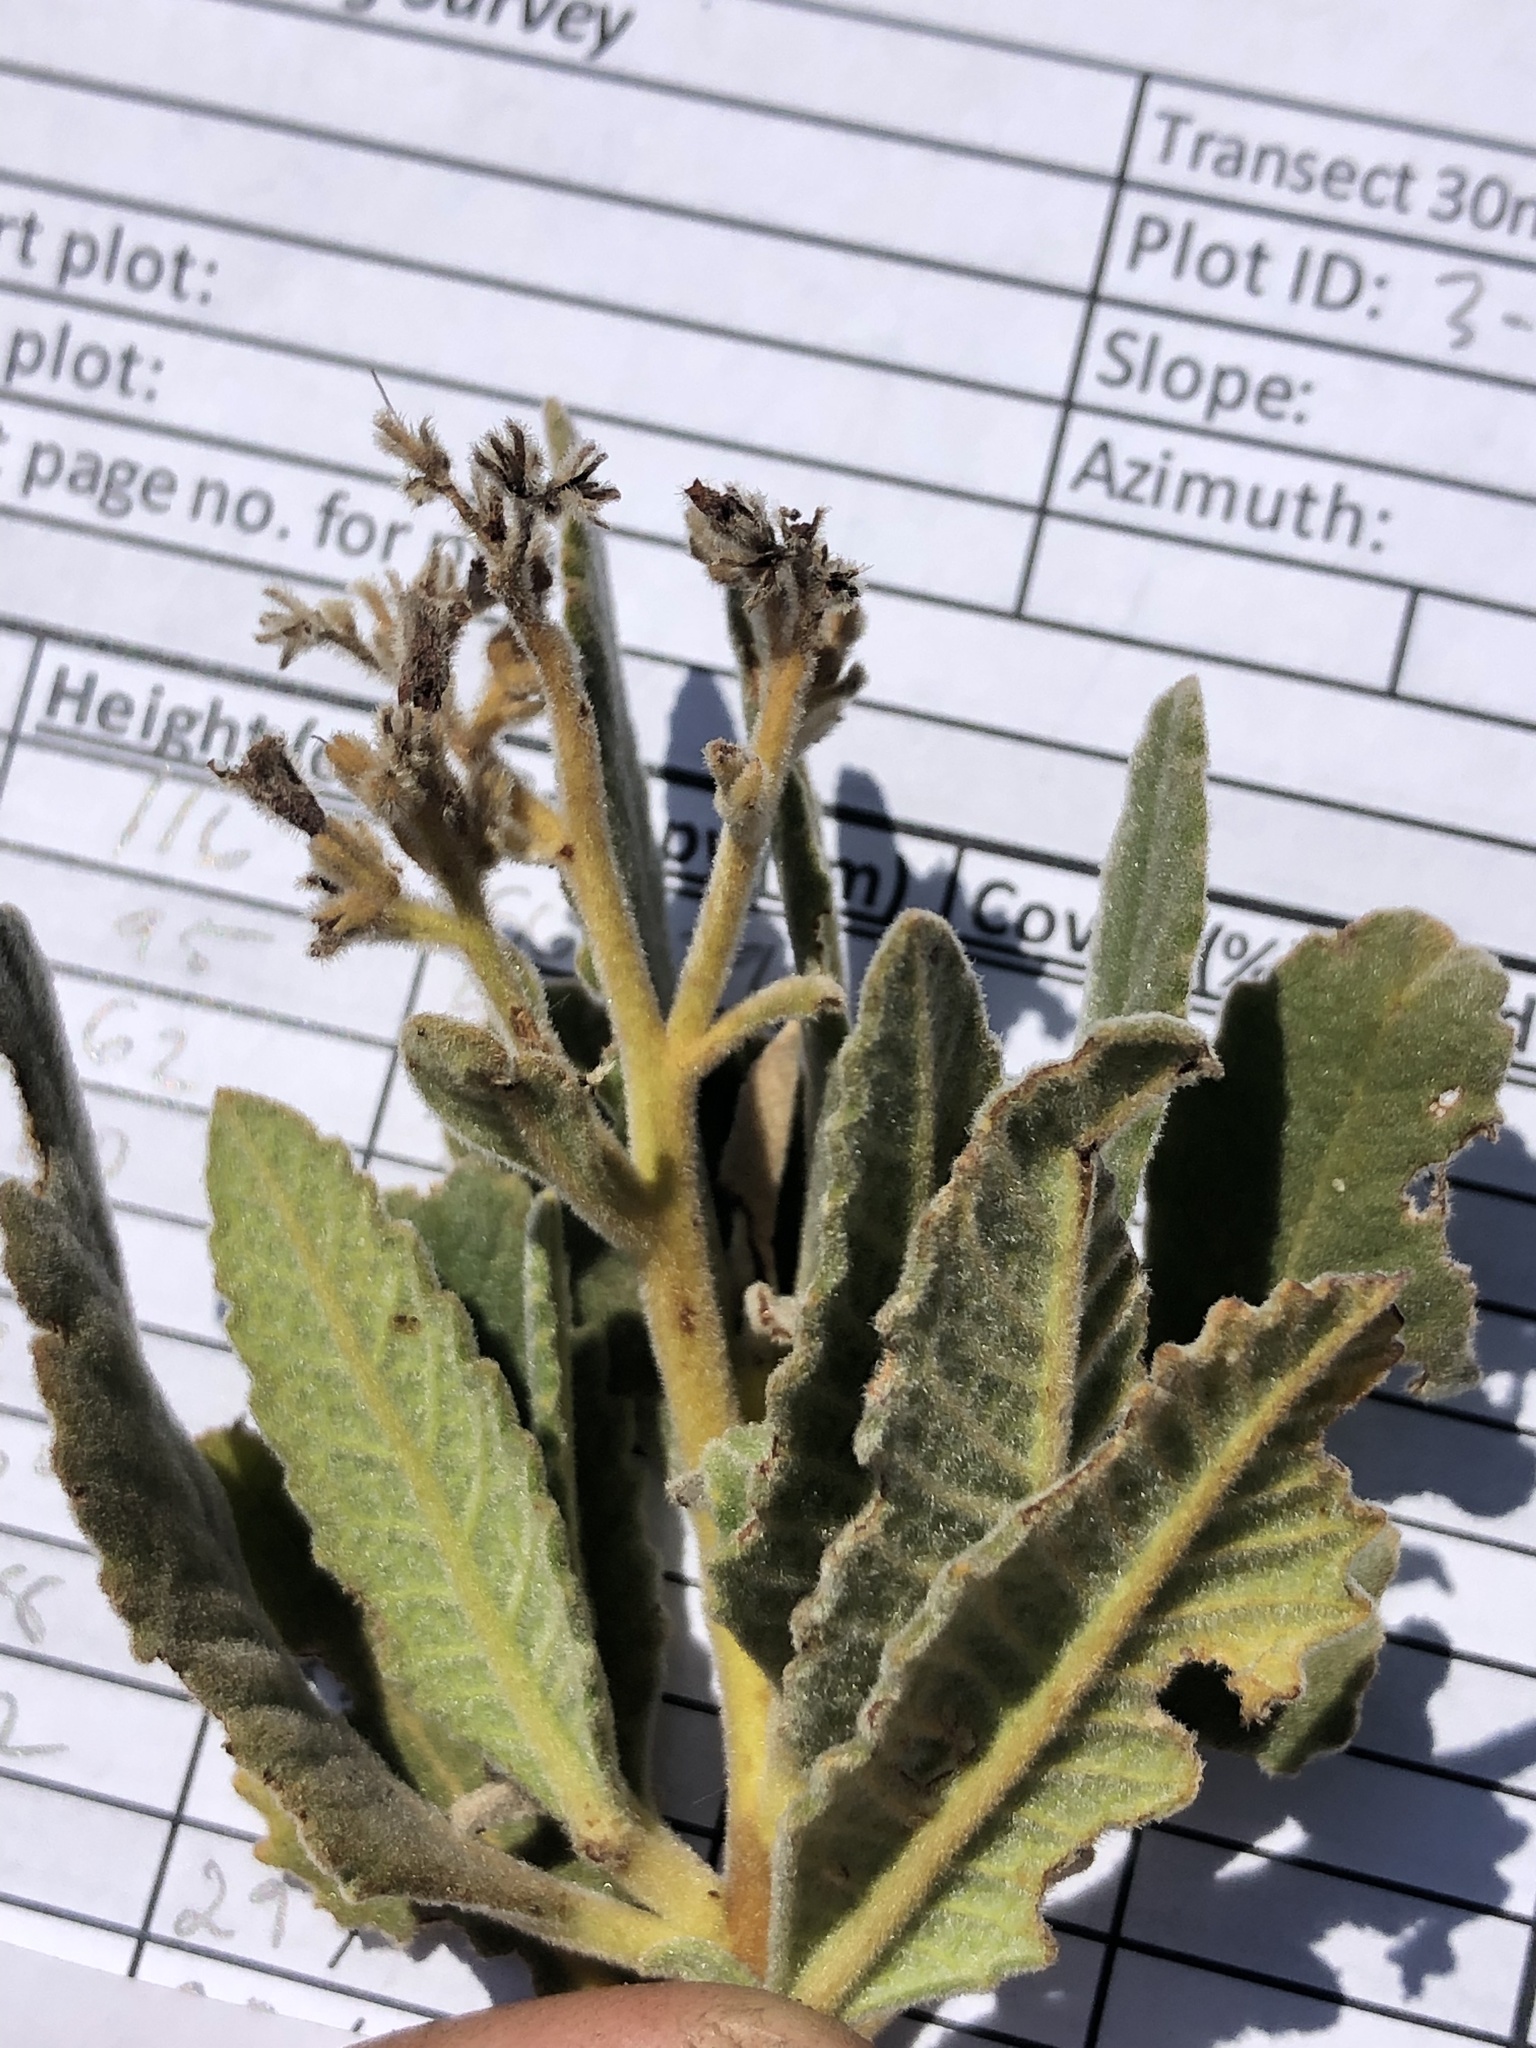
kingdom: Plantae
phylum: Tracheophyta
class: Magnoliopsida
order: Boraginales
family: Namaceae
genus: Eriodictyon
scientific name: Eriodictyon crassifolium
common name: Thick-leaf yerba-santa
